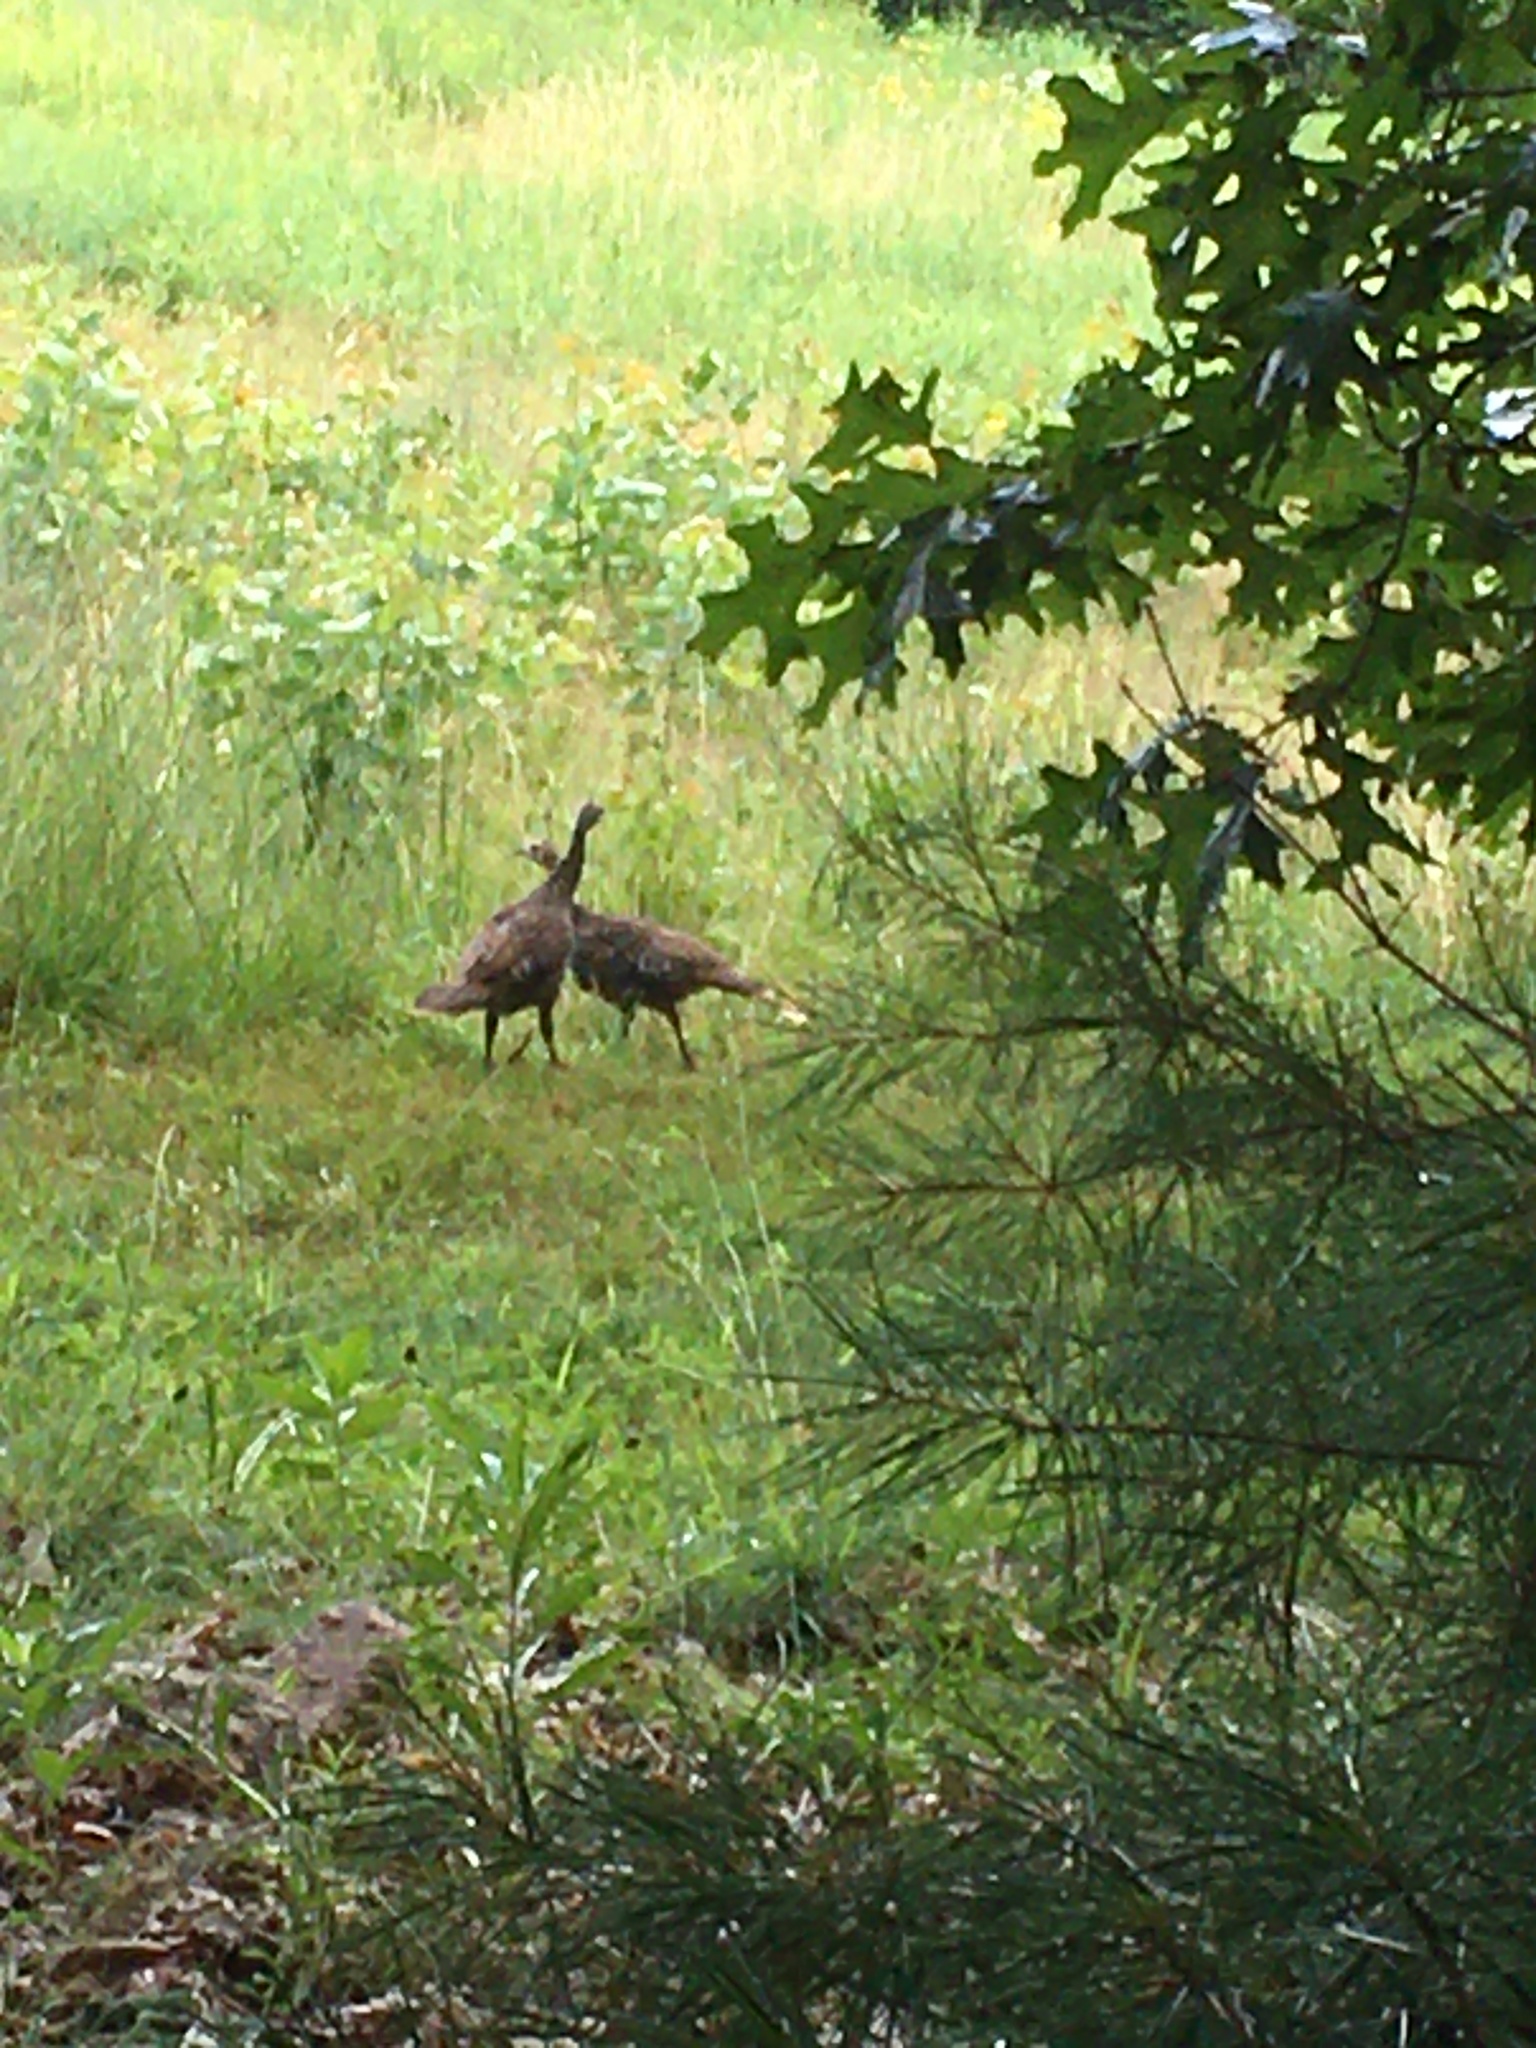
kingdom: Animalia
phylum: Chordata
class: Aves
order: Galliformes
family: Phasianidae
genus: Meleagris
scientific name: Meleagris gallopavo
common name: Wild turkey
